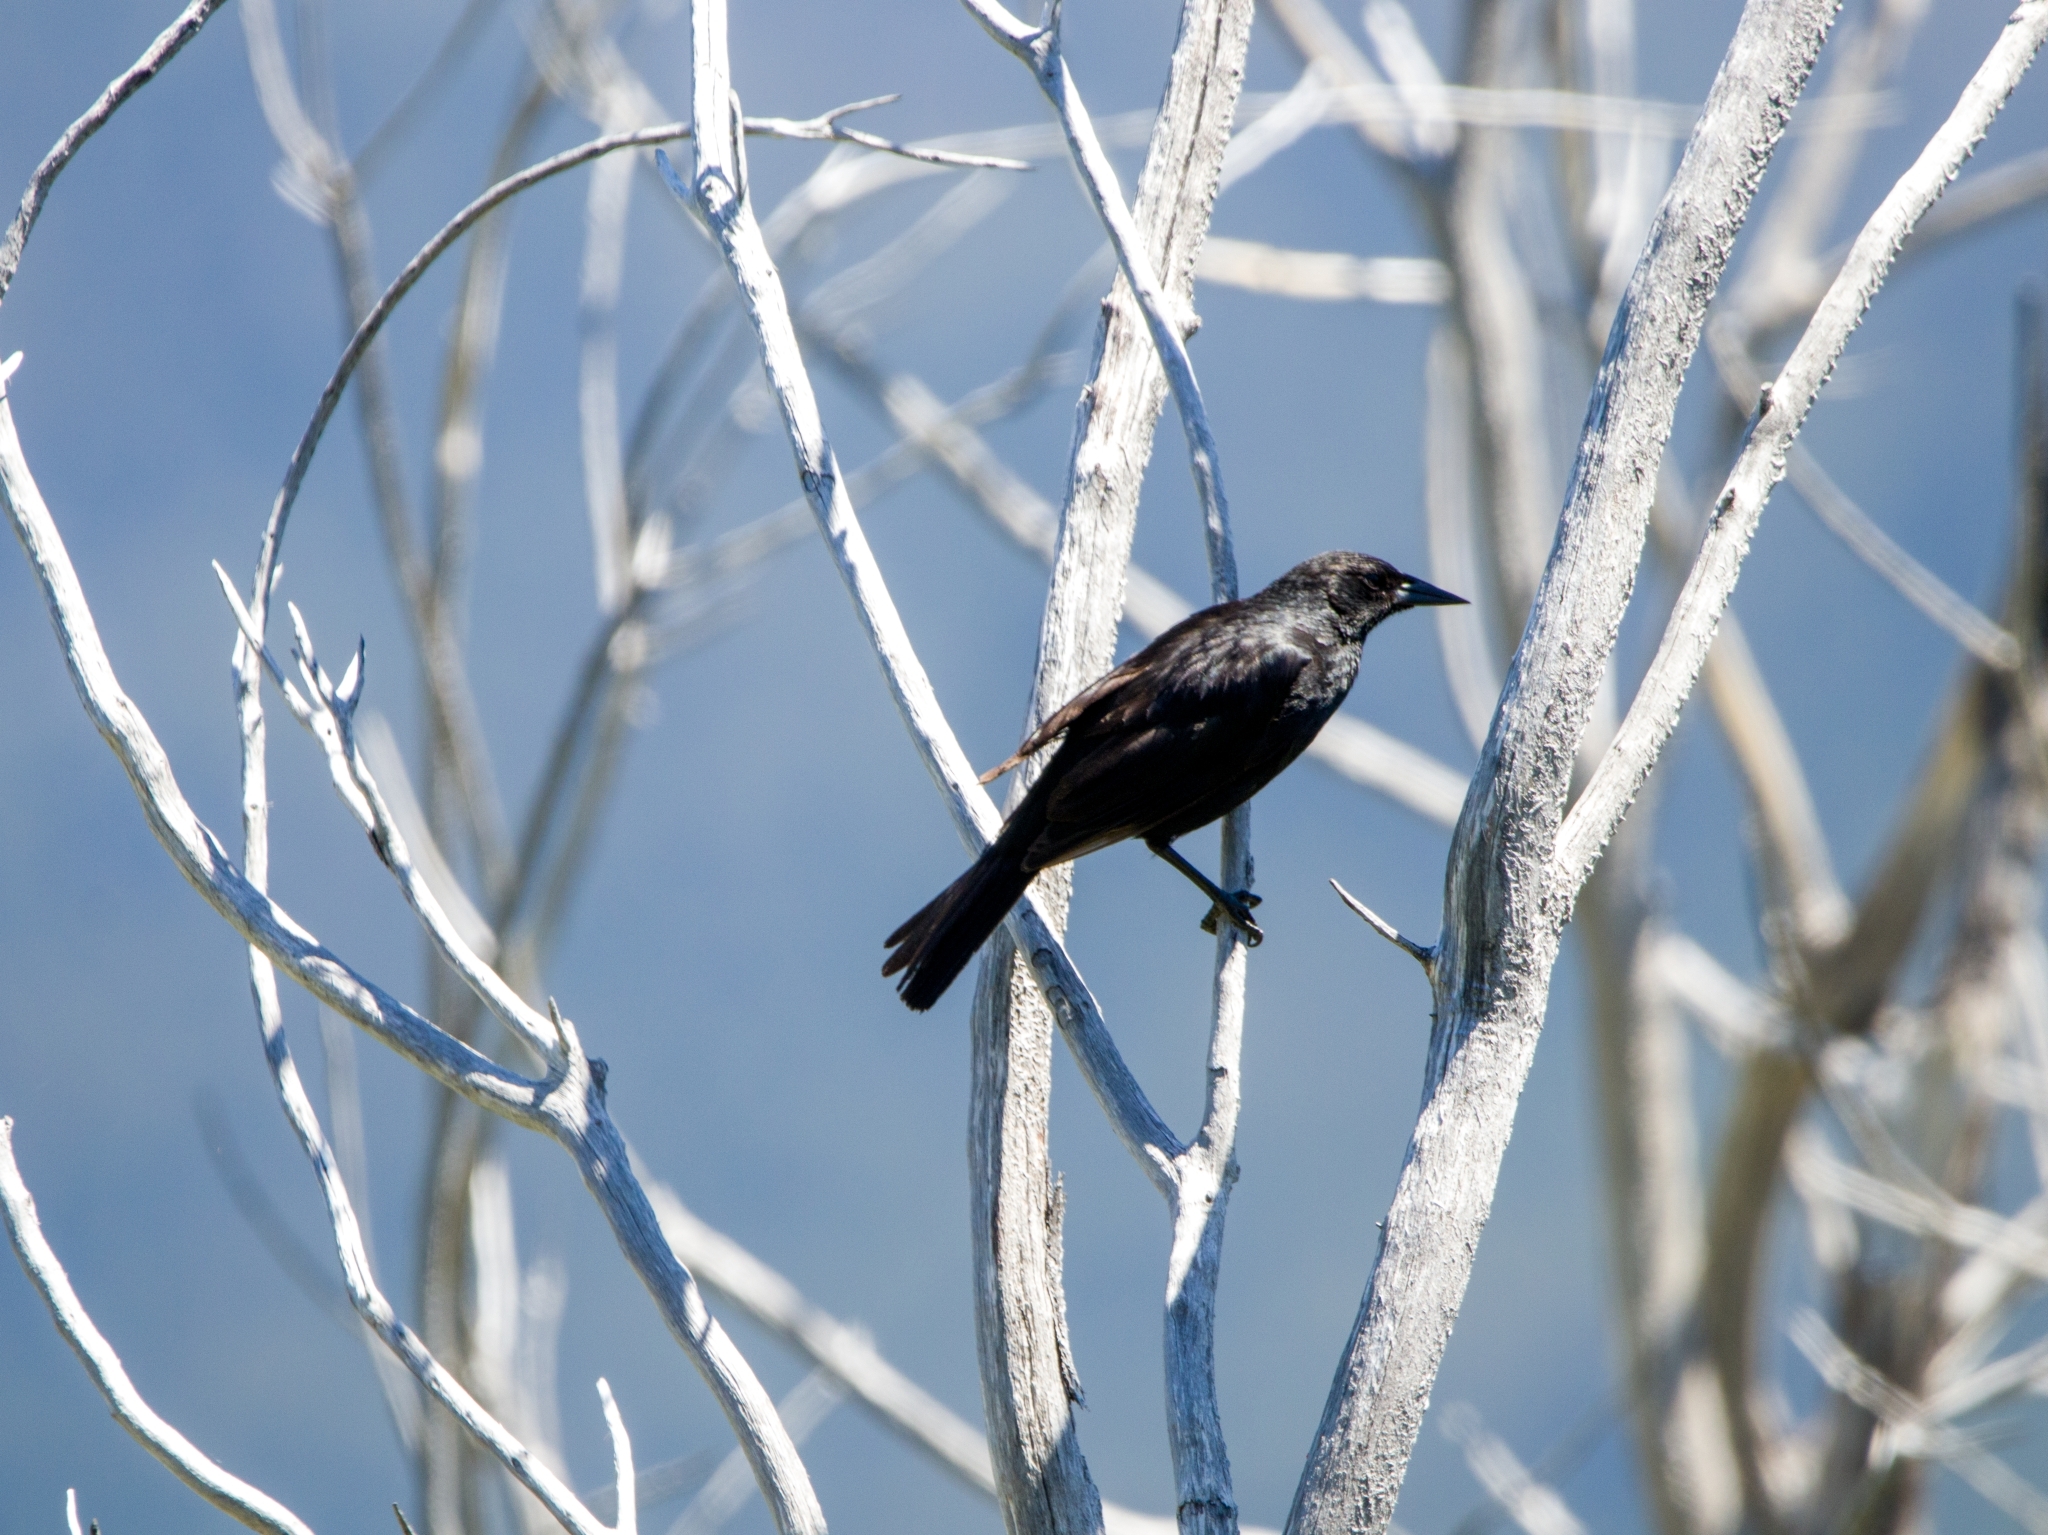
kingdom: Animalia
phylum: Chordata
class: Aves
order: Passeriformes
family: Icteridae
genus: Curaeus
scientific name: Curaeus curaeus
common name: Austral blackbird
